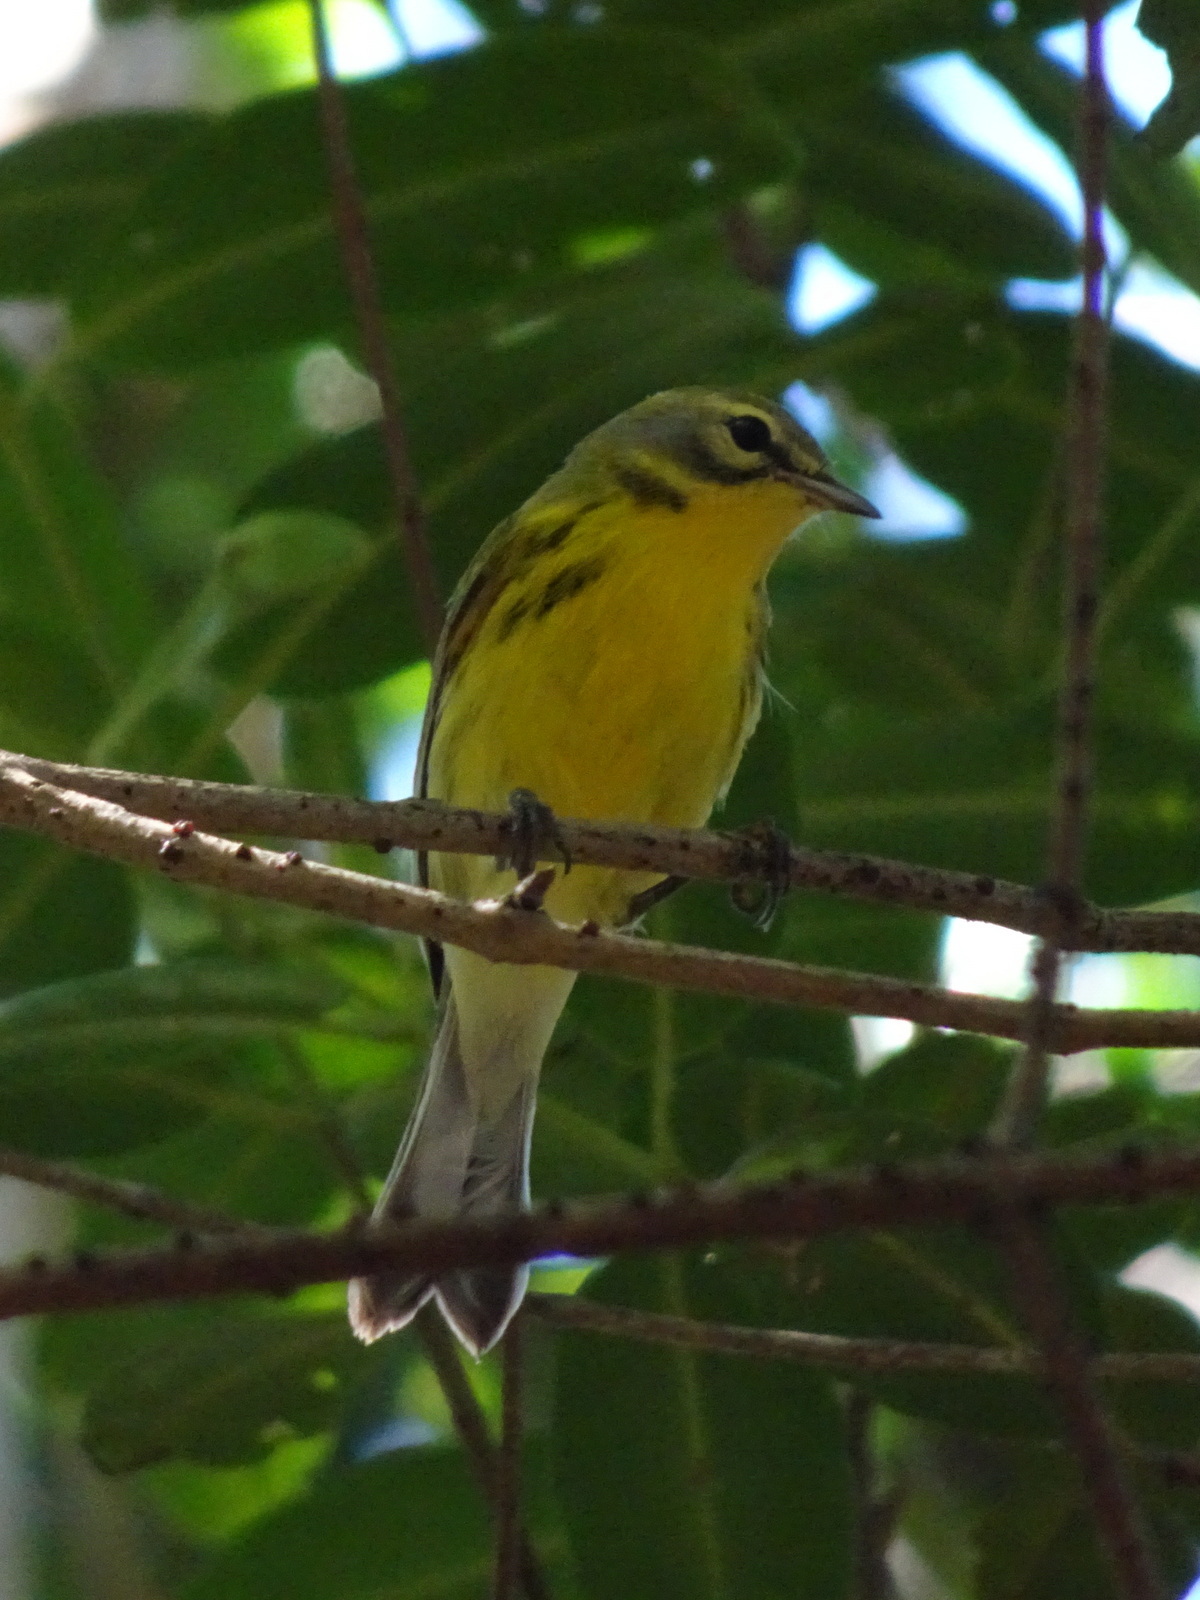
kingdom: Animalia
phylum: Chordata
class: Aves
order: Passeriformes
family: Parulidae
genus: Setophaga
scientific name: Setophaga discolor
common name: Prairie warbler
